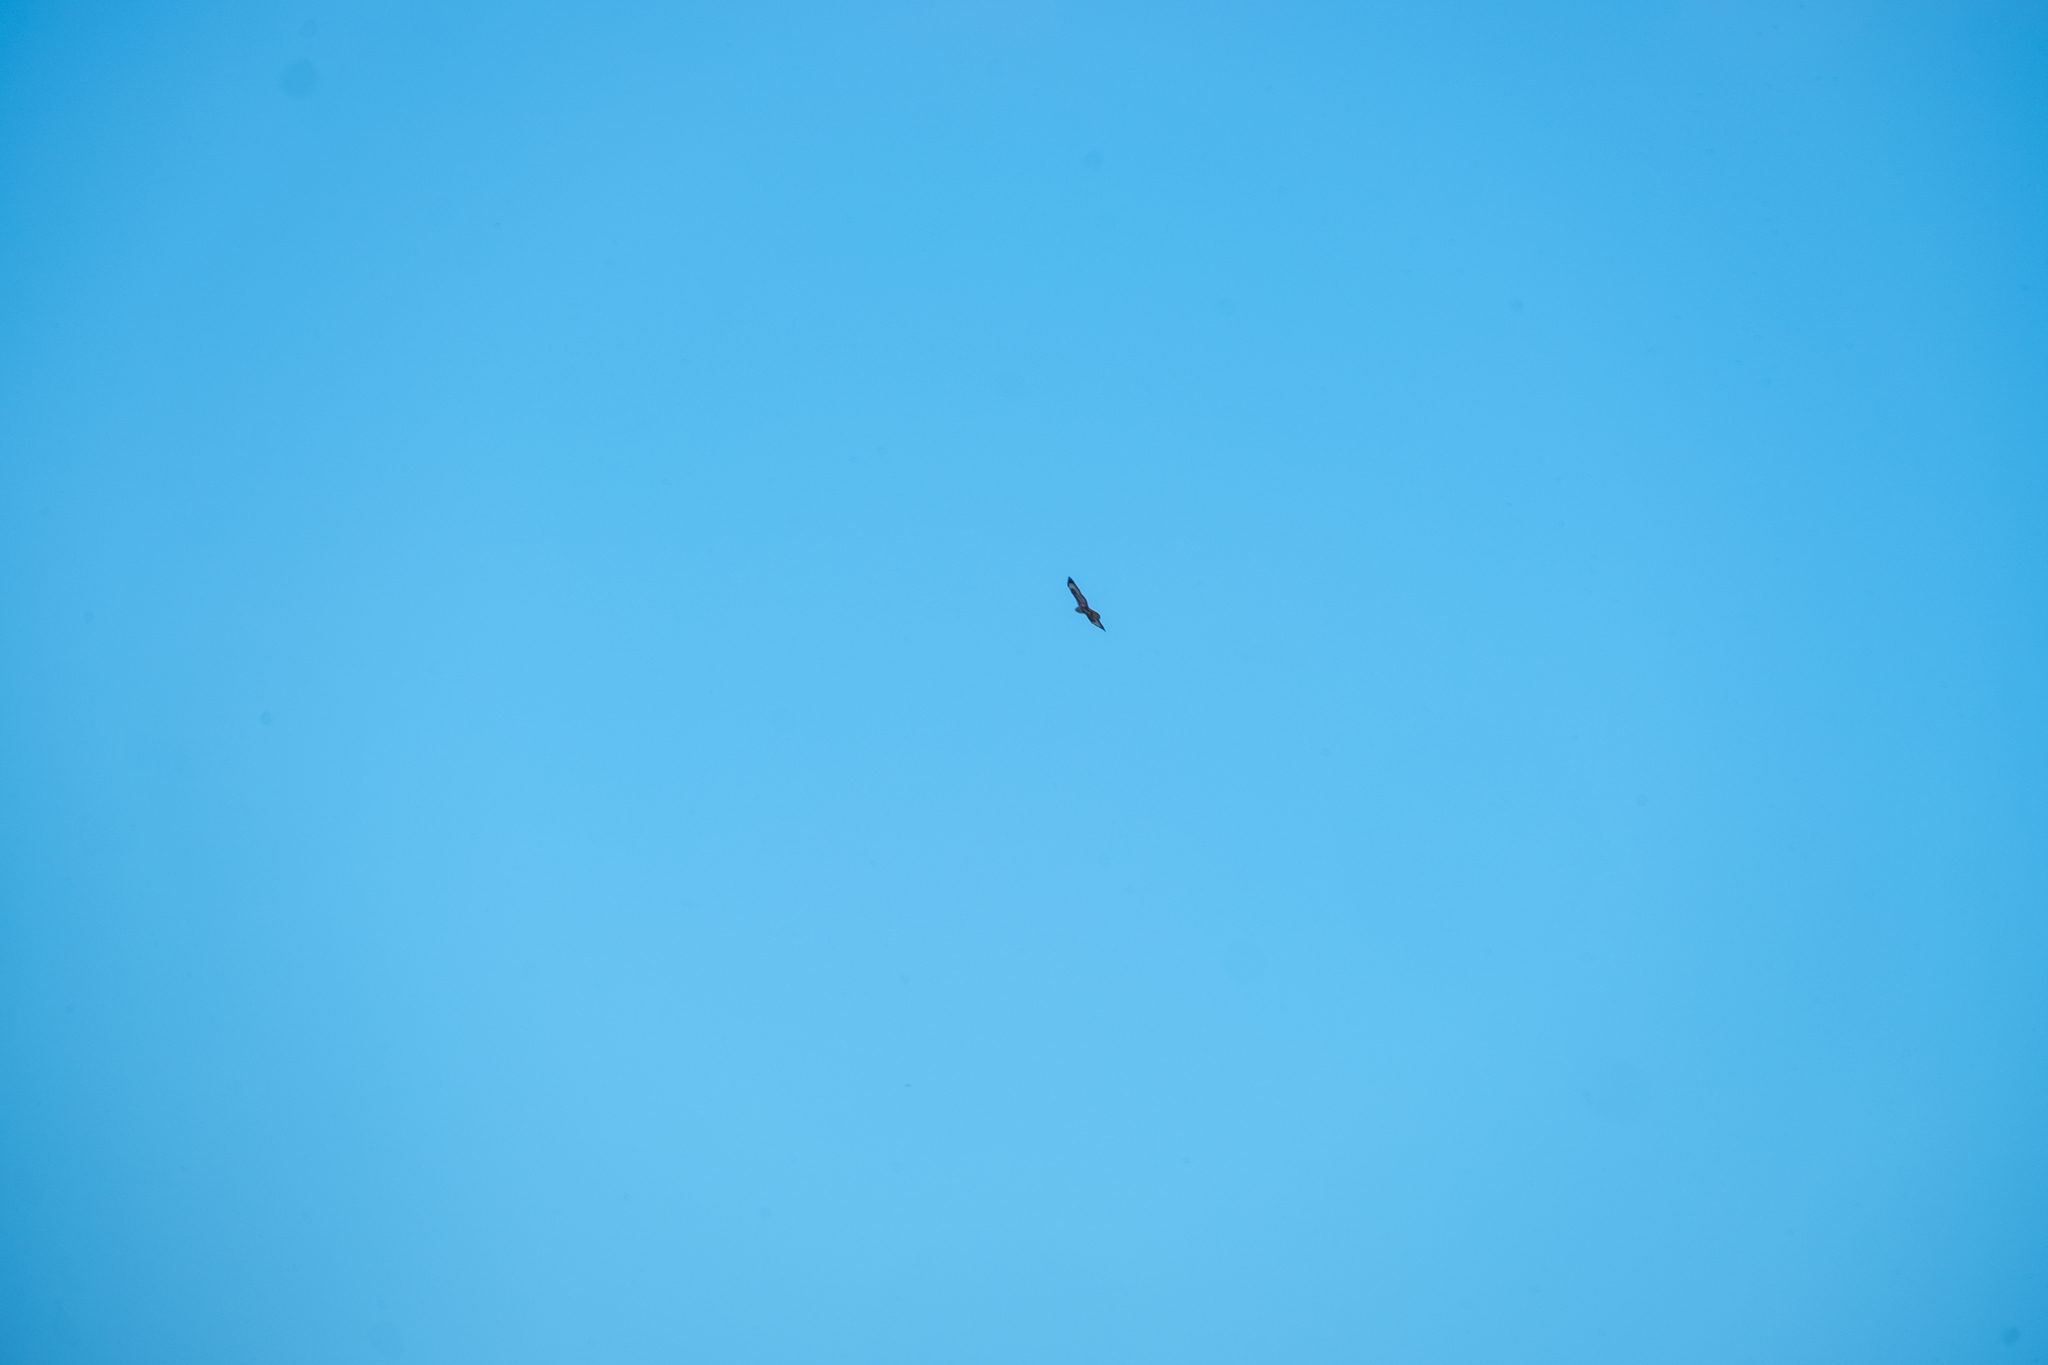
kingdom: Animalia
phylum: Chordata
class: Aves
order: Accipitriformes
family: Accipitridae
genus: Buteo
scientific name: Buteo buteo
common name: Common buzzard
